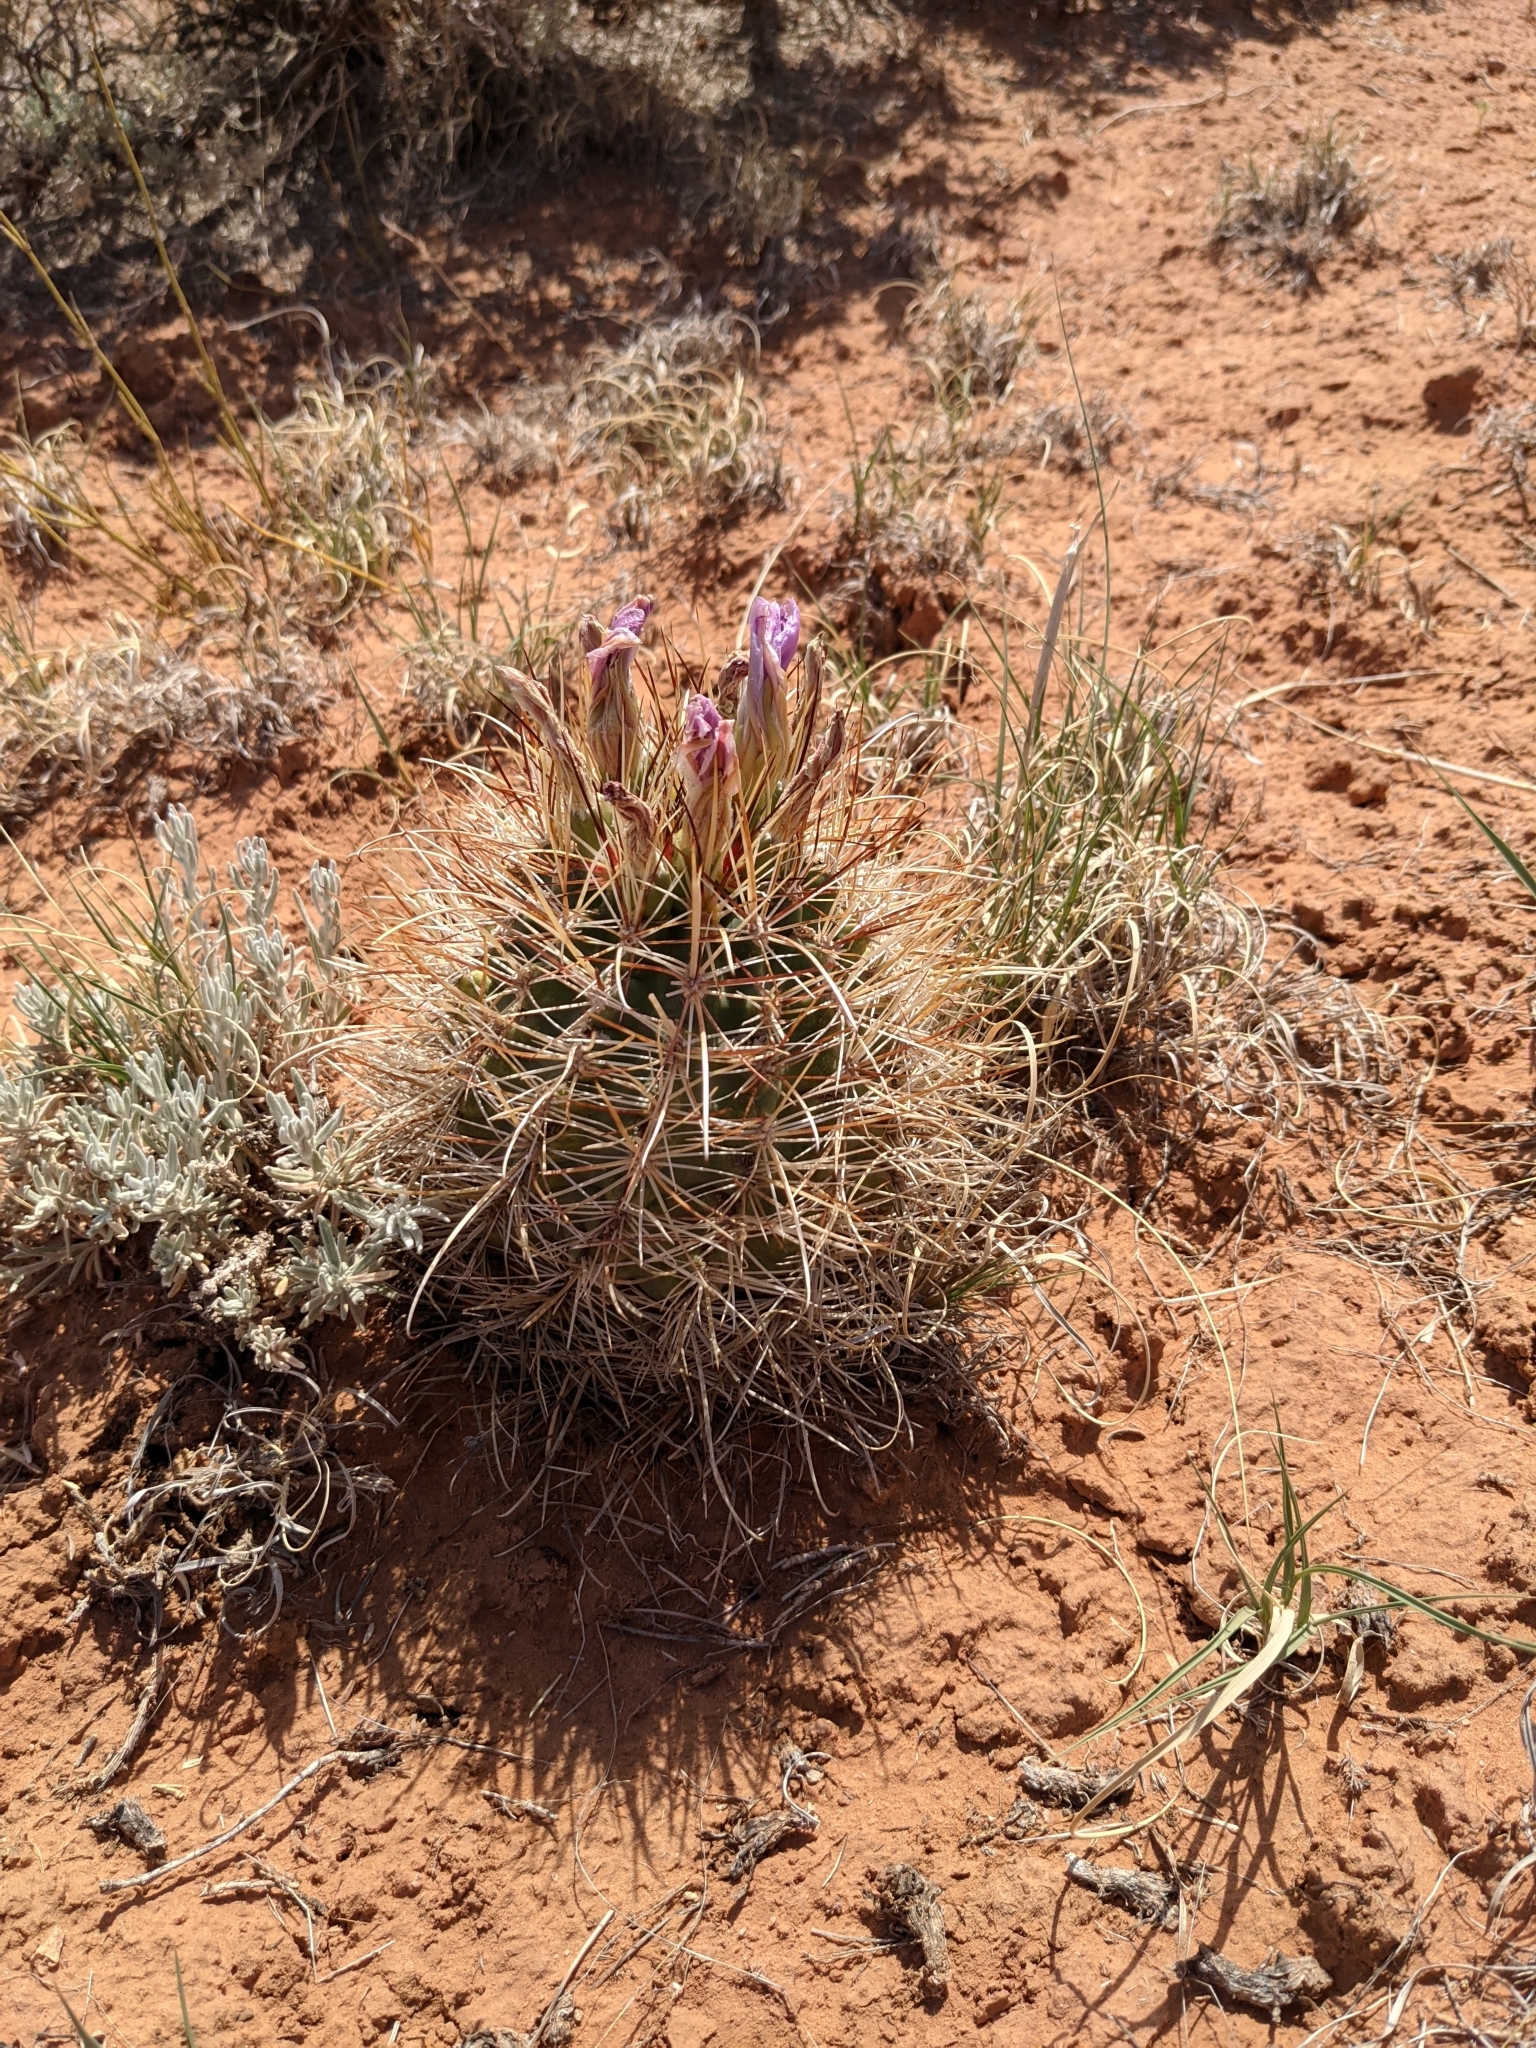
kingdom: Plantae
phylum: Tracheophyta
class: Magnoliopsida
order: Caryophyllales
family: Cactaceae
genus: Sclerocactus
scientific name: Sclerocactus parviflorus
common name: Small-flower fishhook cactus
